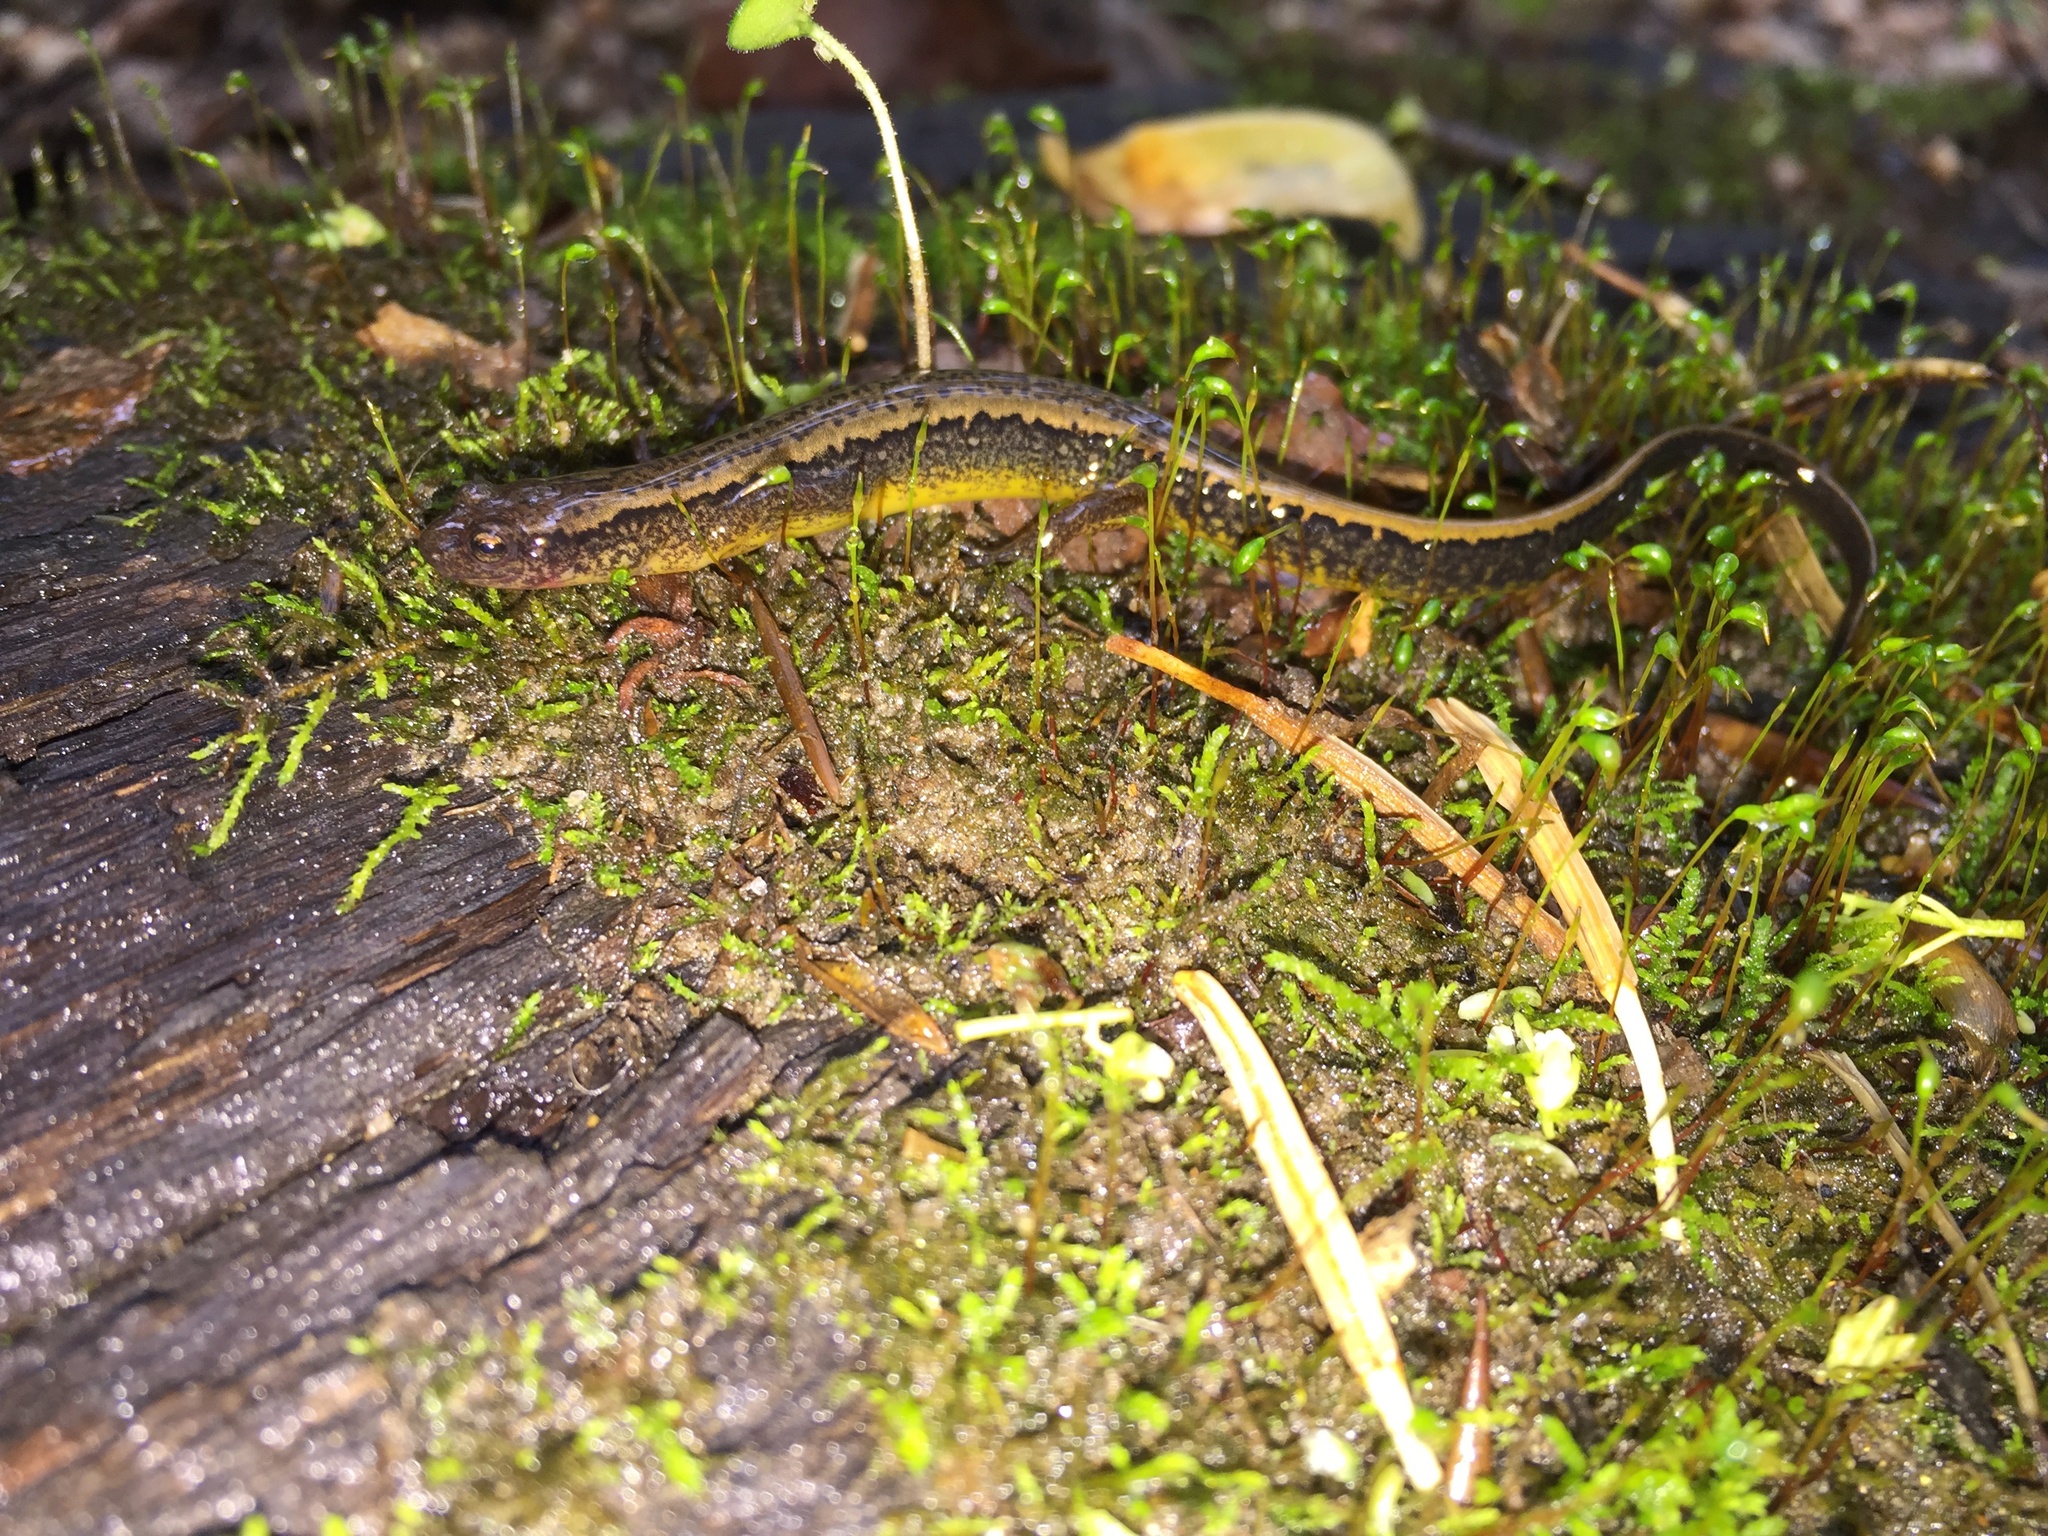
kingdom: Animalia
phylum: Chordata
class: Amphibia
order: Caudata
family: Plethodontidae
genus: Eurycea
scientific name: Eurycea bislineata
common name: Northern two-lined salamander
